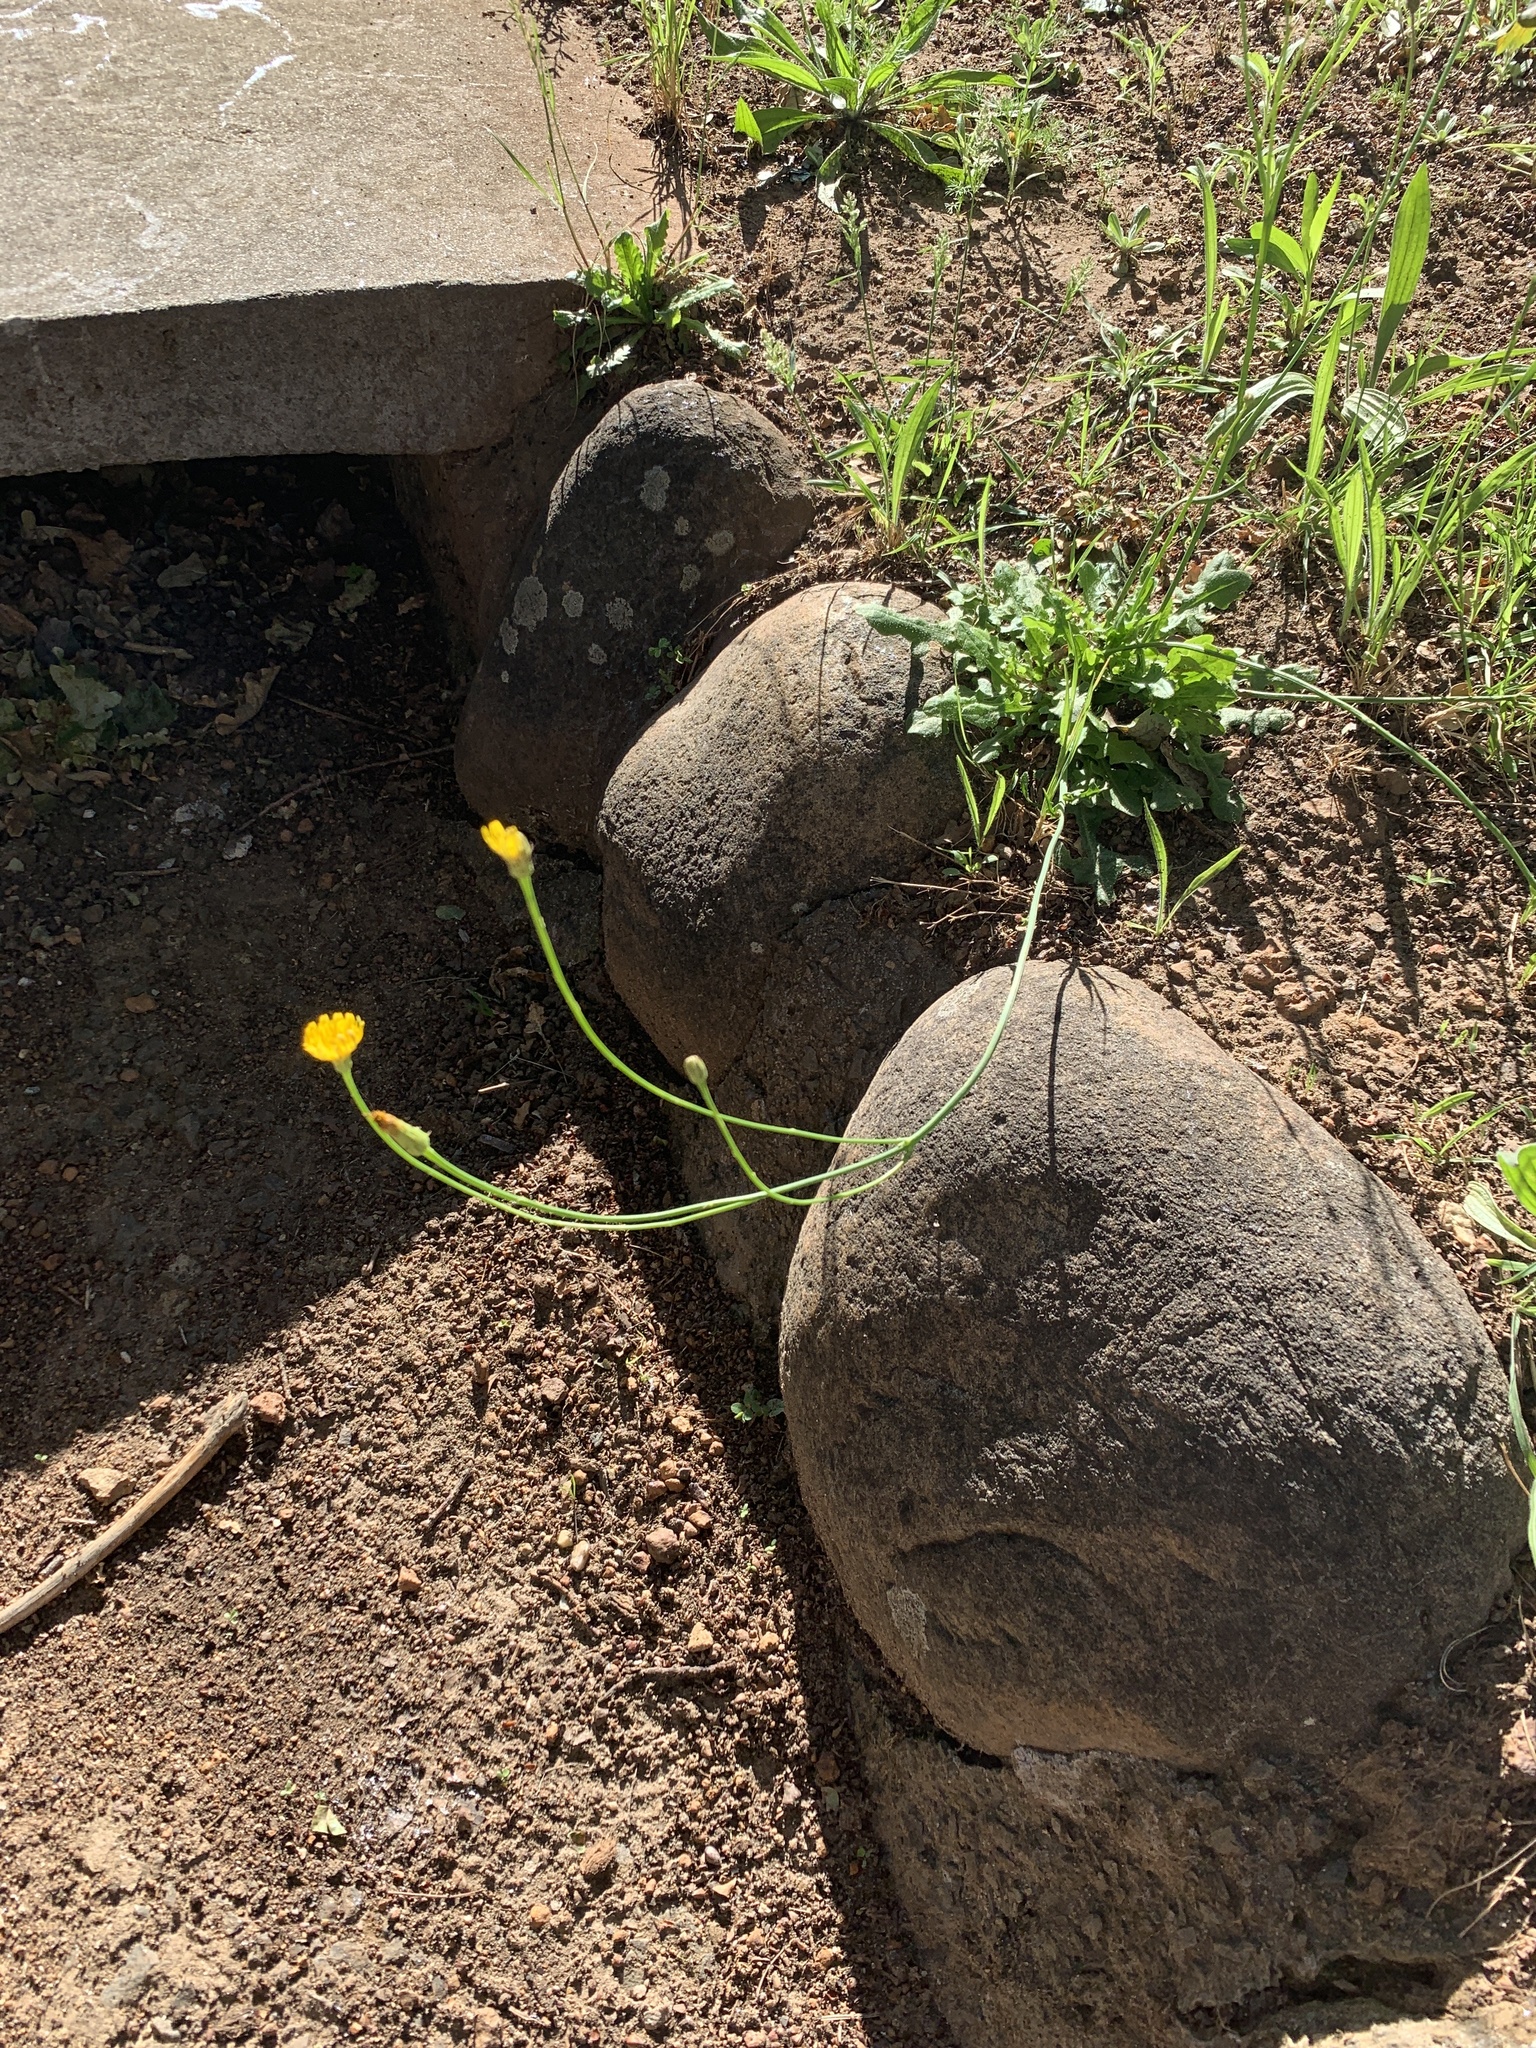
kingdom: Plantae
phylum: Tracheophyta
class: Magnoliopsida
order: Asterales
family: Asteraceae
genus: Hypochaeris
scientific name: Hypochaeris radicata
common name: Flatweed
